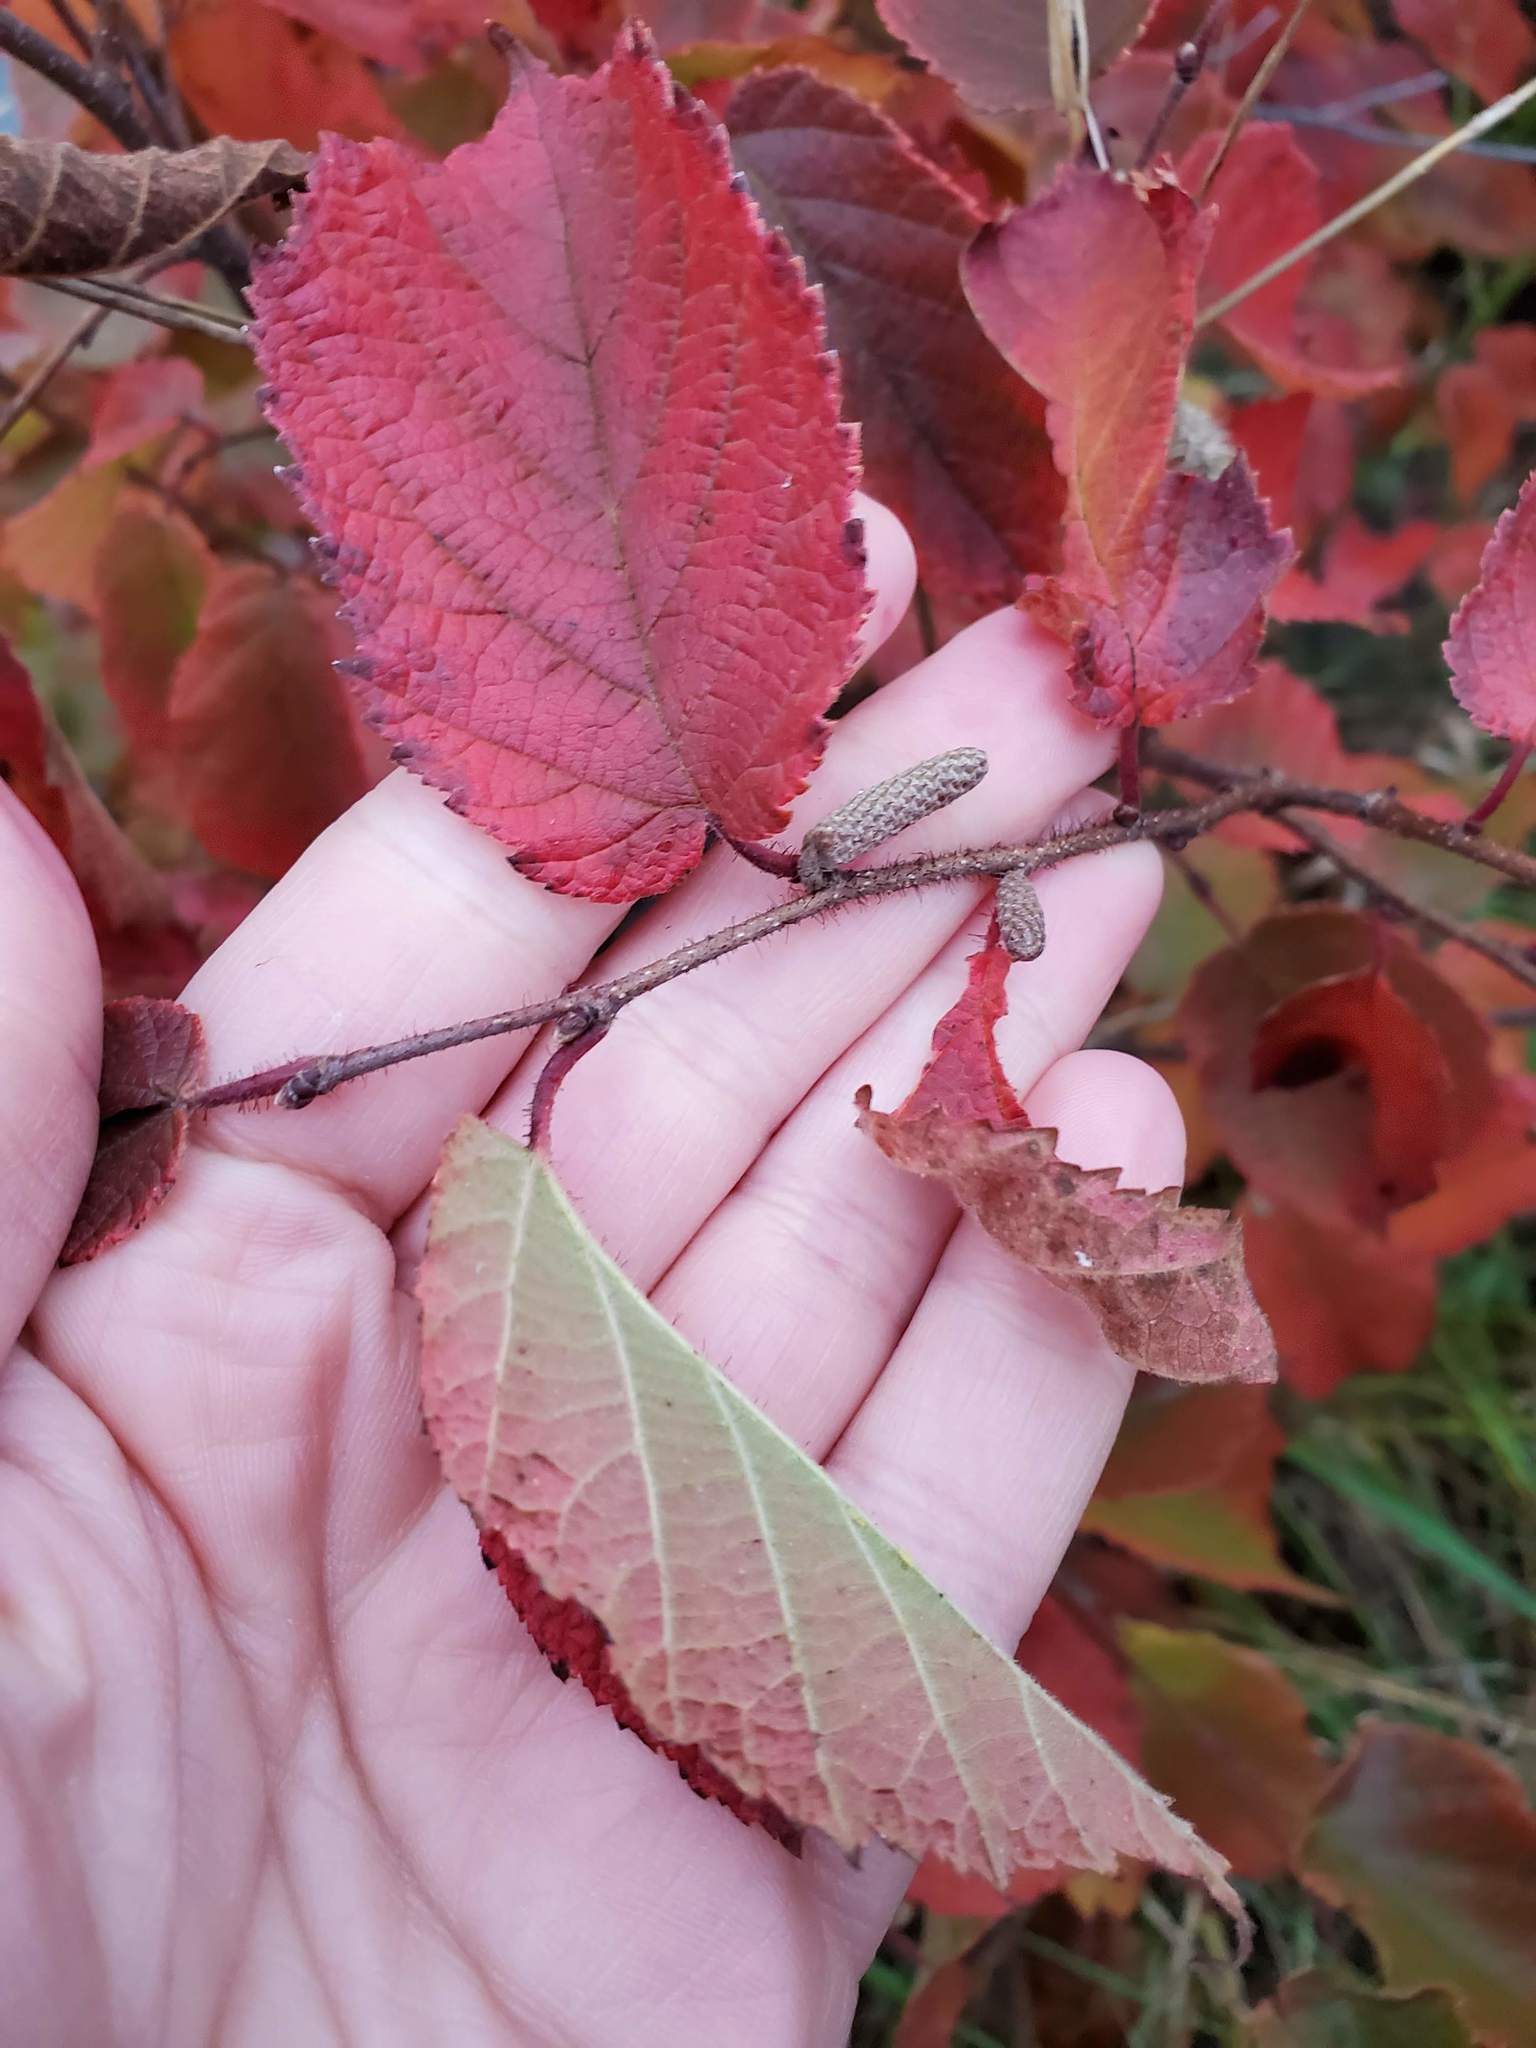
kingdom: Plantae
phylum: Tracheophyta
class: Magnoliopsida
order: Fagales
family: Betulaceae
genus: Corylus
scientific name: Corylus americana
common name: American hazel
